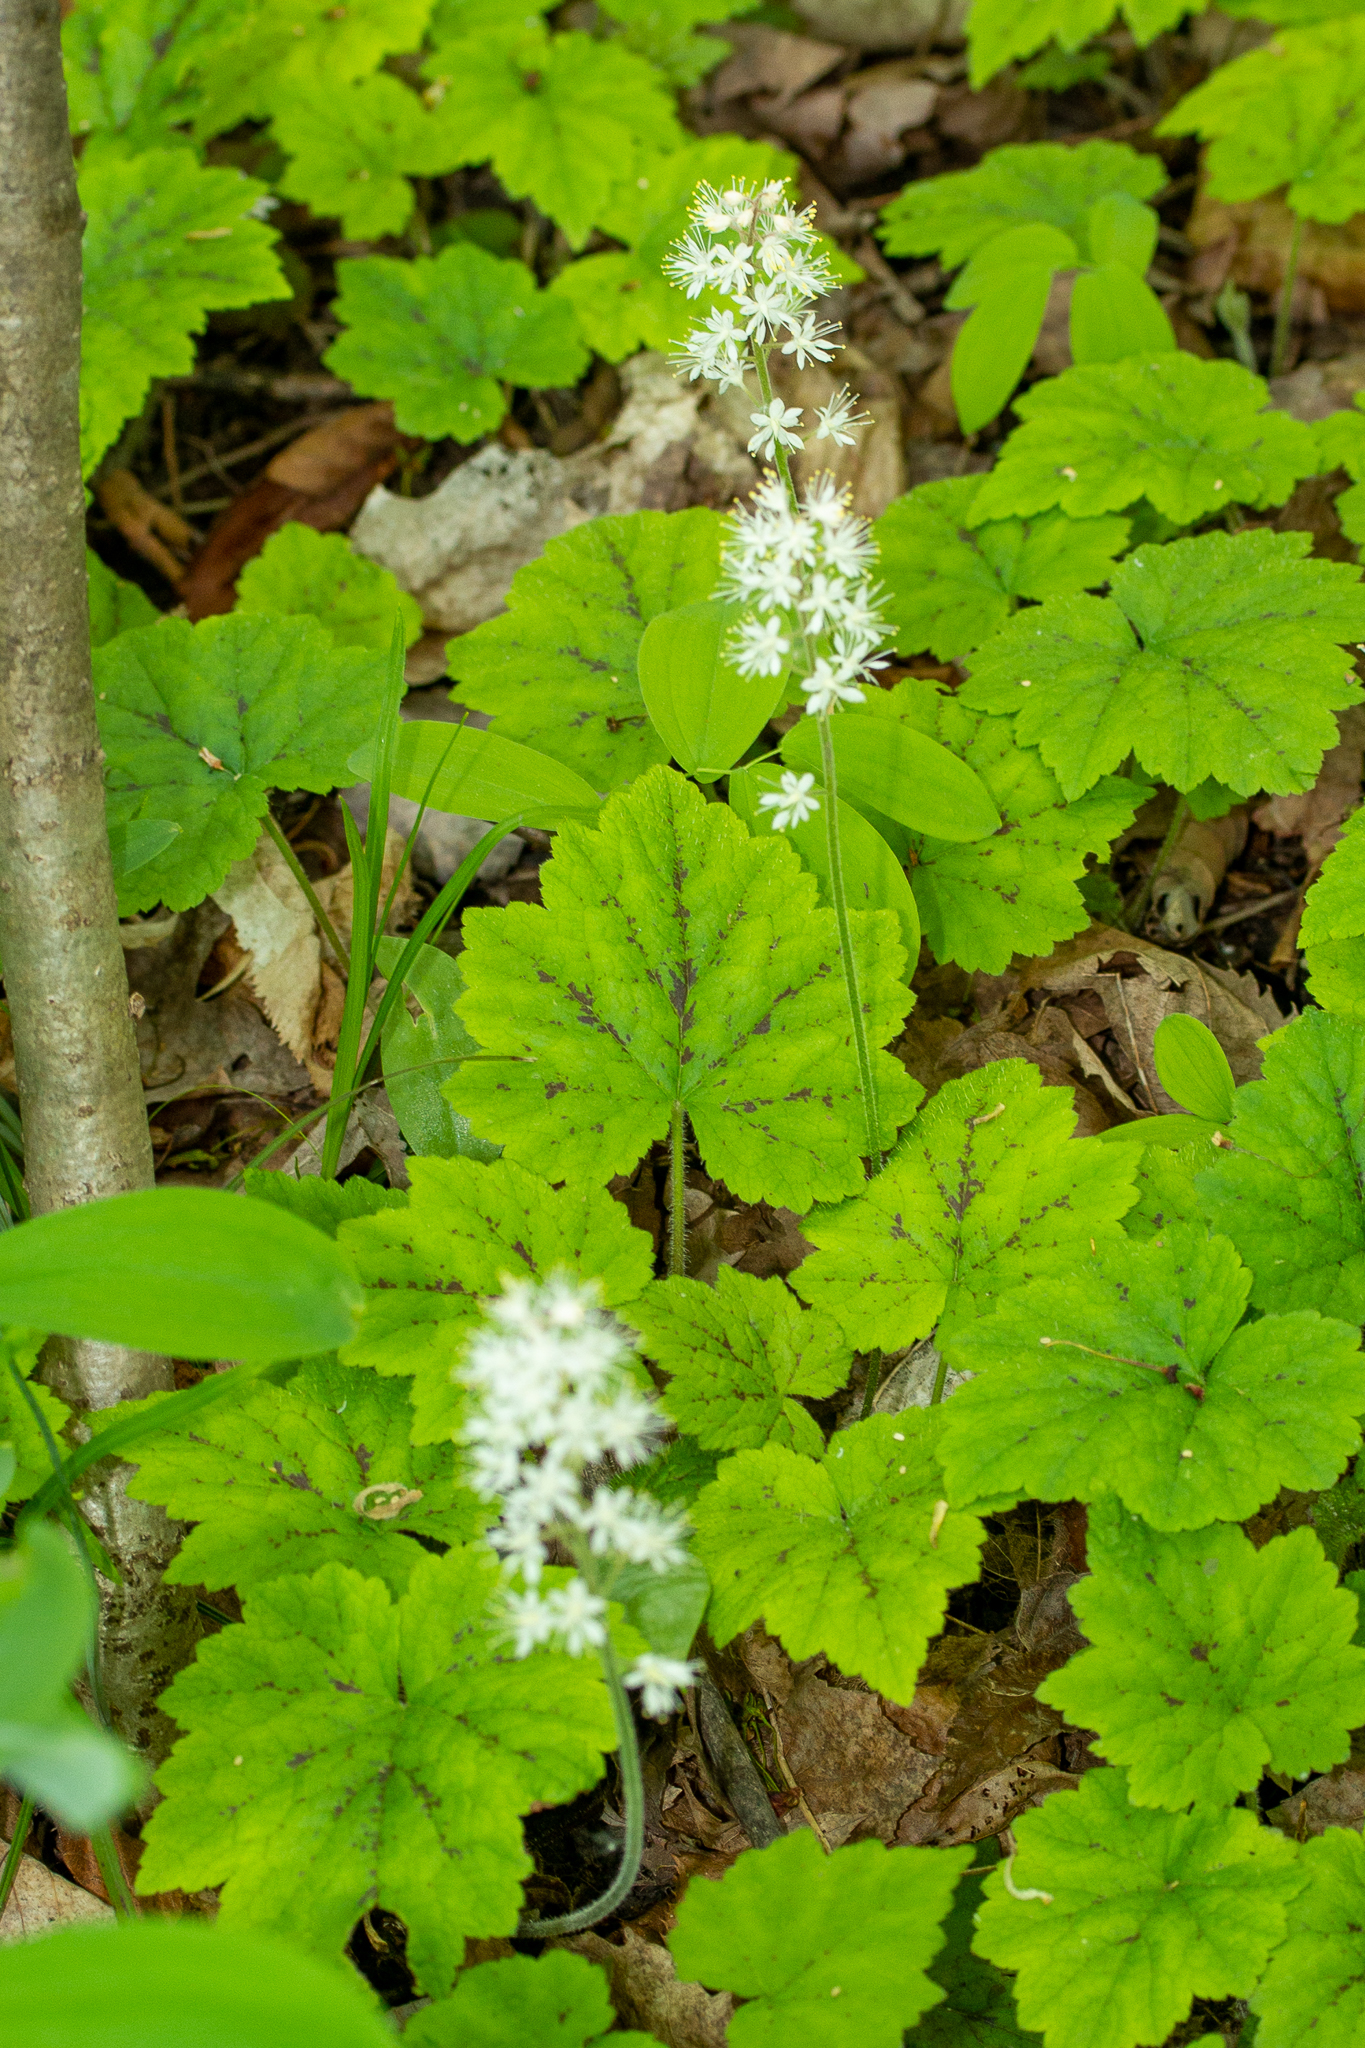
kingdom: Plantae
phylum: Tracheophyta
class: Magnoliopsida
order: Saxifragales
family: Saxifragaceae
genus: Tiarella
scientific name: Tiarella stolonifera
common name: Stoloniferous foamflower
